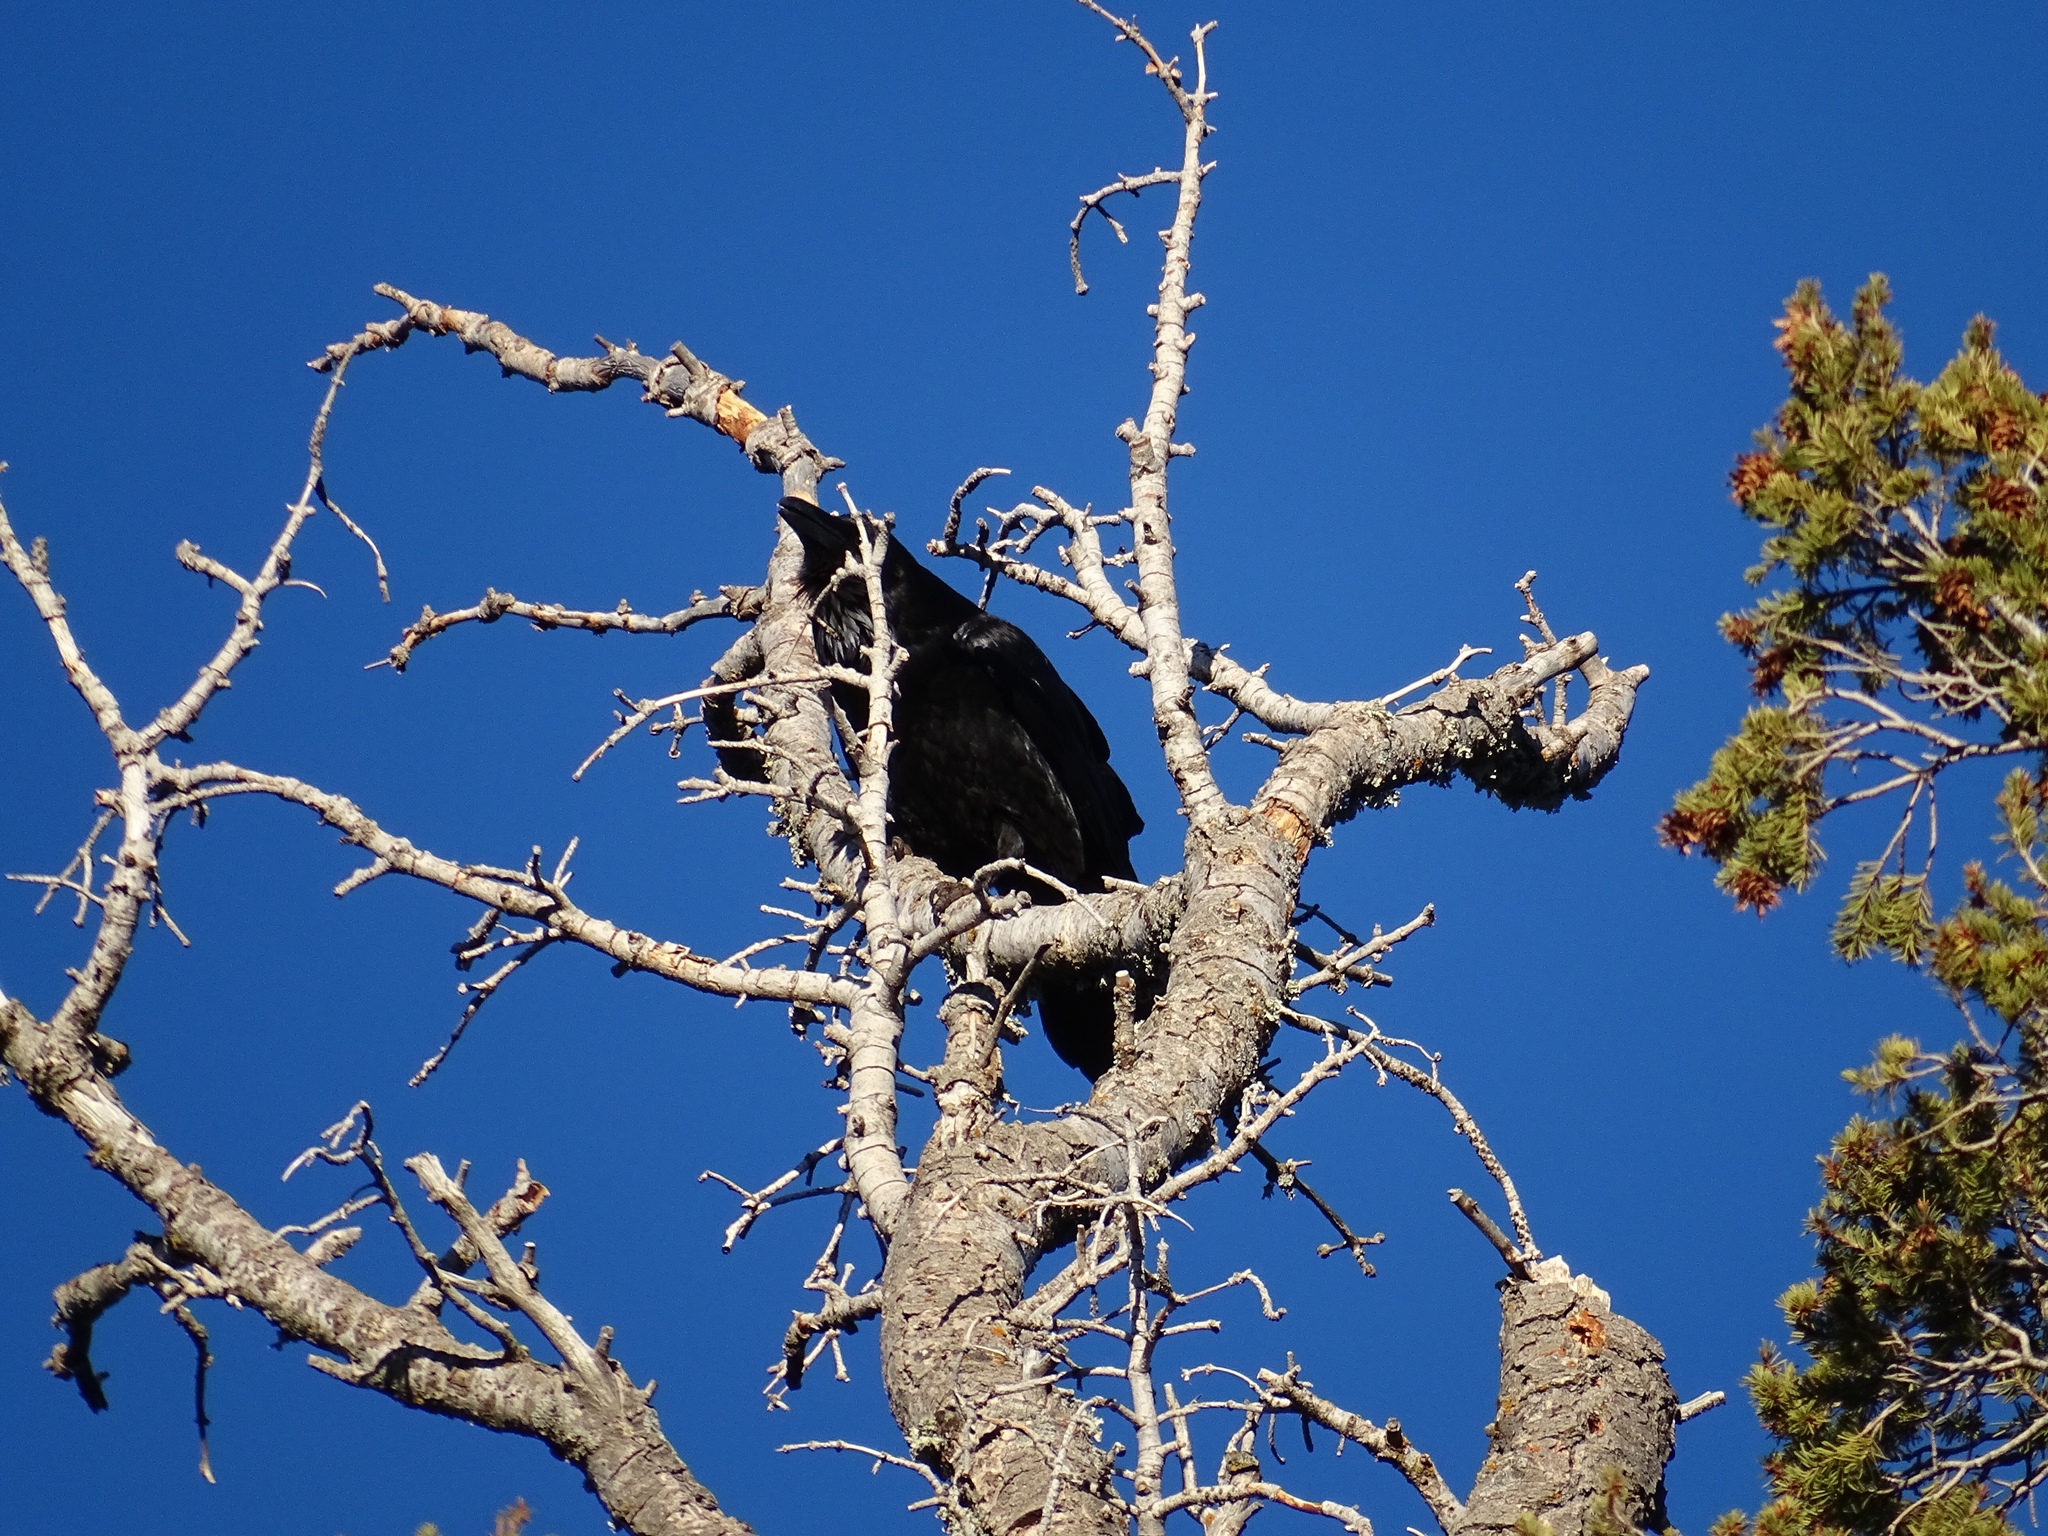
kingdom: Animalia
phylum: Chordata
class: Aves
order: Passeriformes
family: Corvidae
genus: Corvus
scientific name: Corvus corax
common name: Common raven
